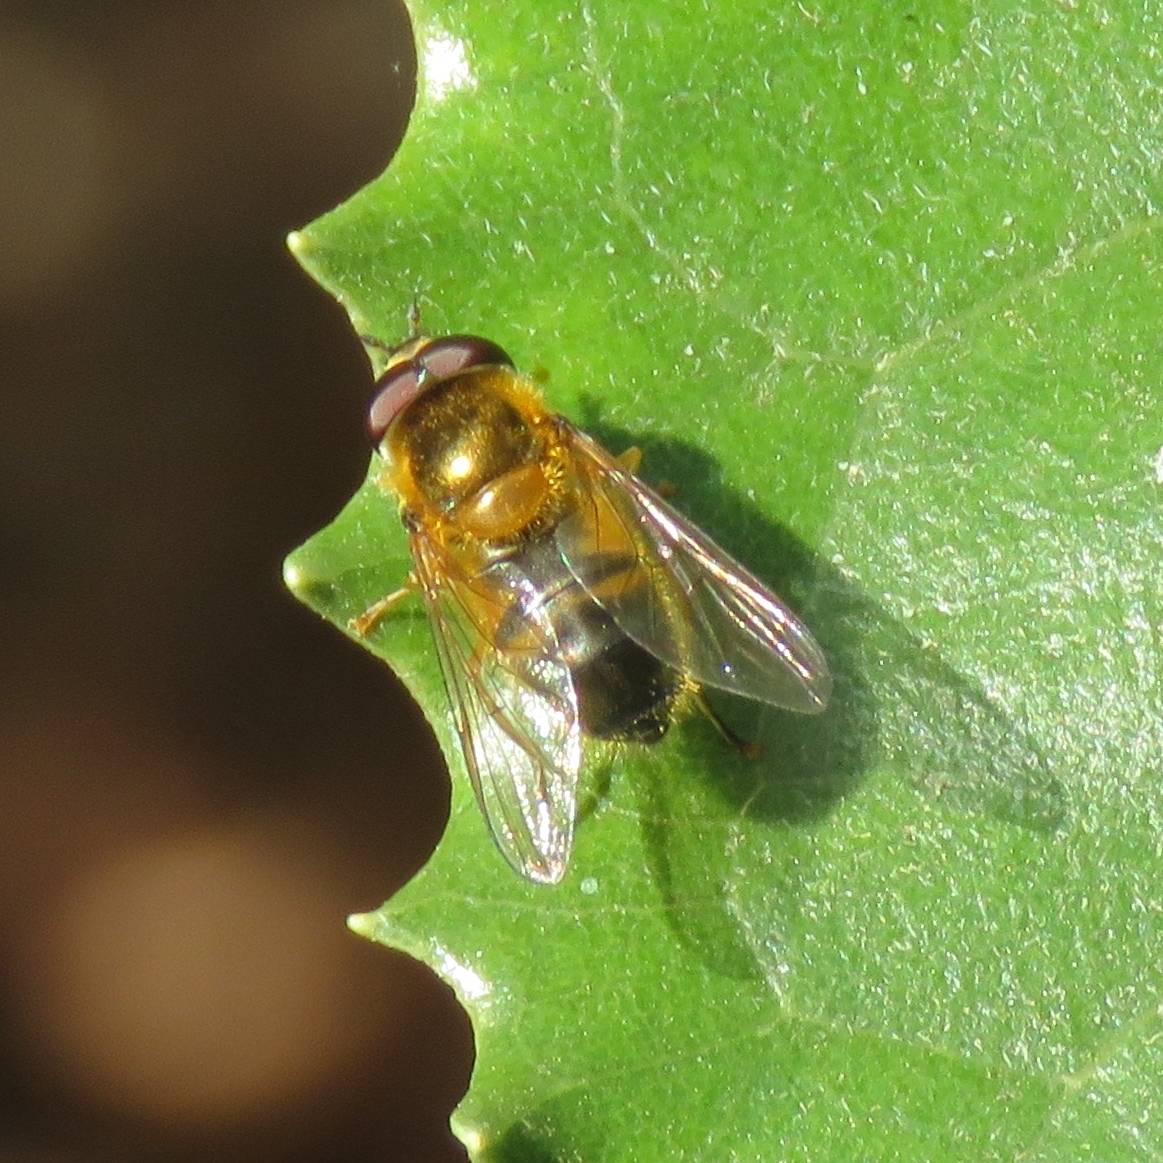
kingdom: Animalia
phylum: Arthropoda
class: Insecta
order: Diptera
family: Syrphidae
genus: Epistrophe
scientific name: Epistrophe eligans
